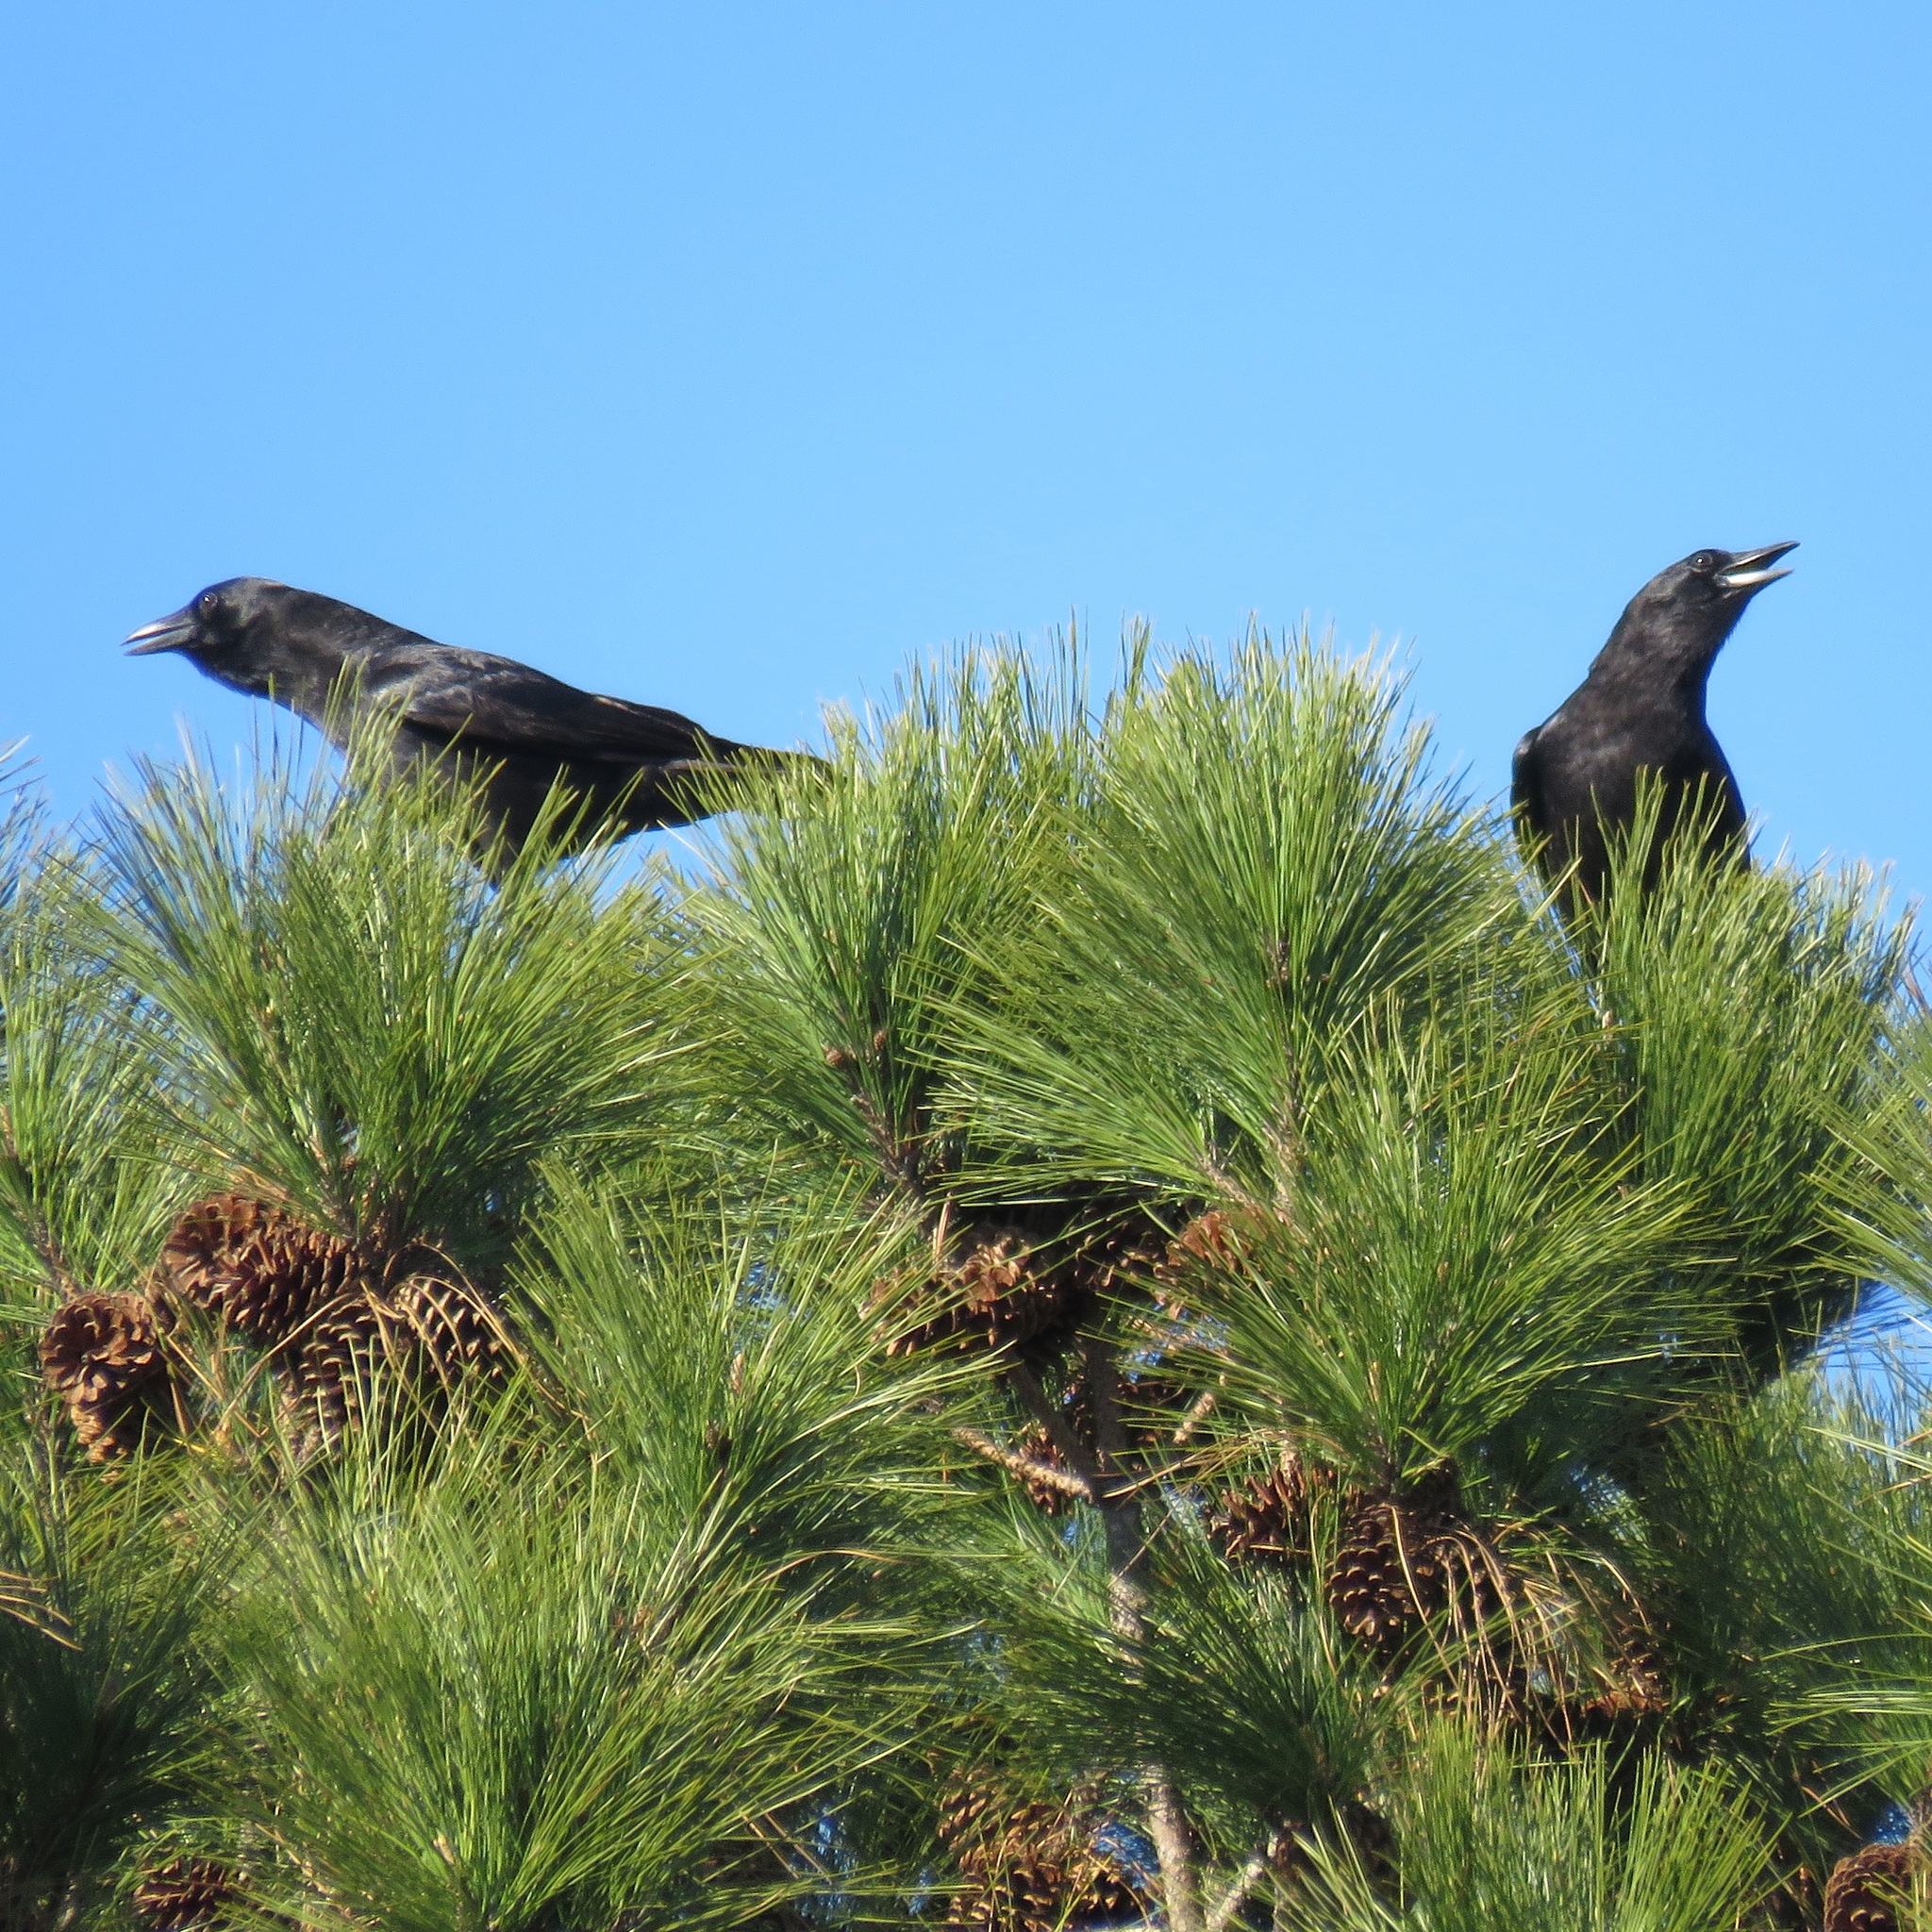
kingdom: Animalia
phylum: Chordata
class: Aves
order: Passeriformes
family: Corvidae
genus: Corvus
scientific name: Corvus brachyrhynchos
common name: American crow
